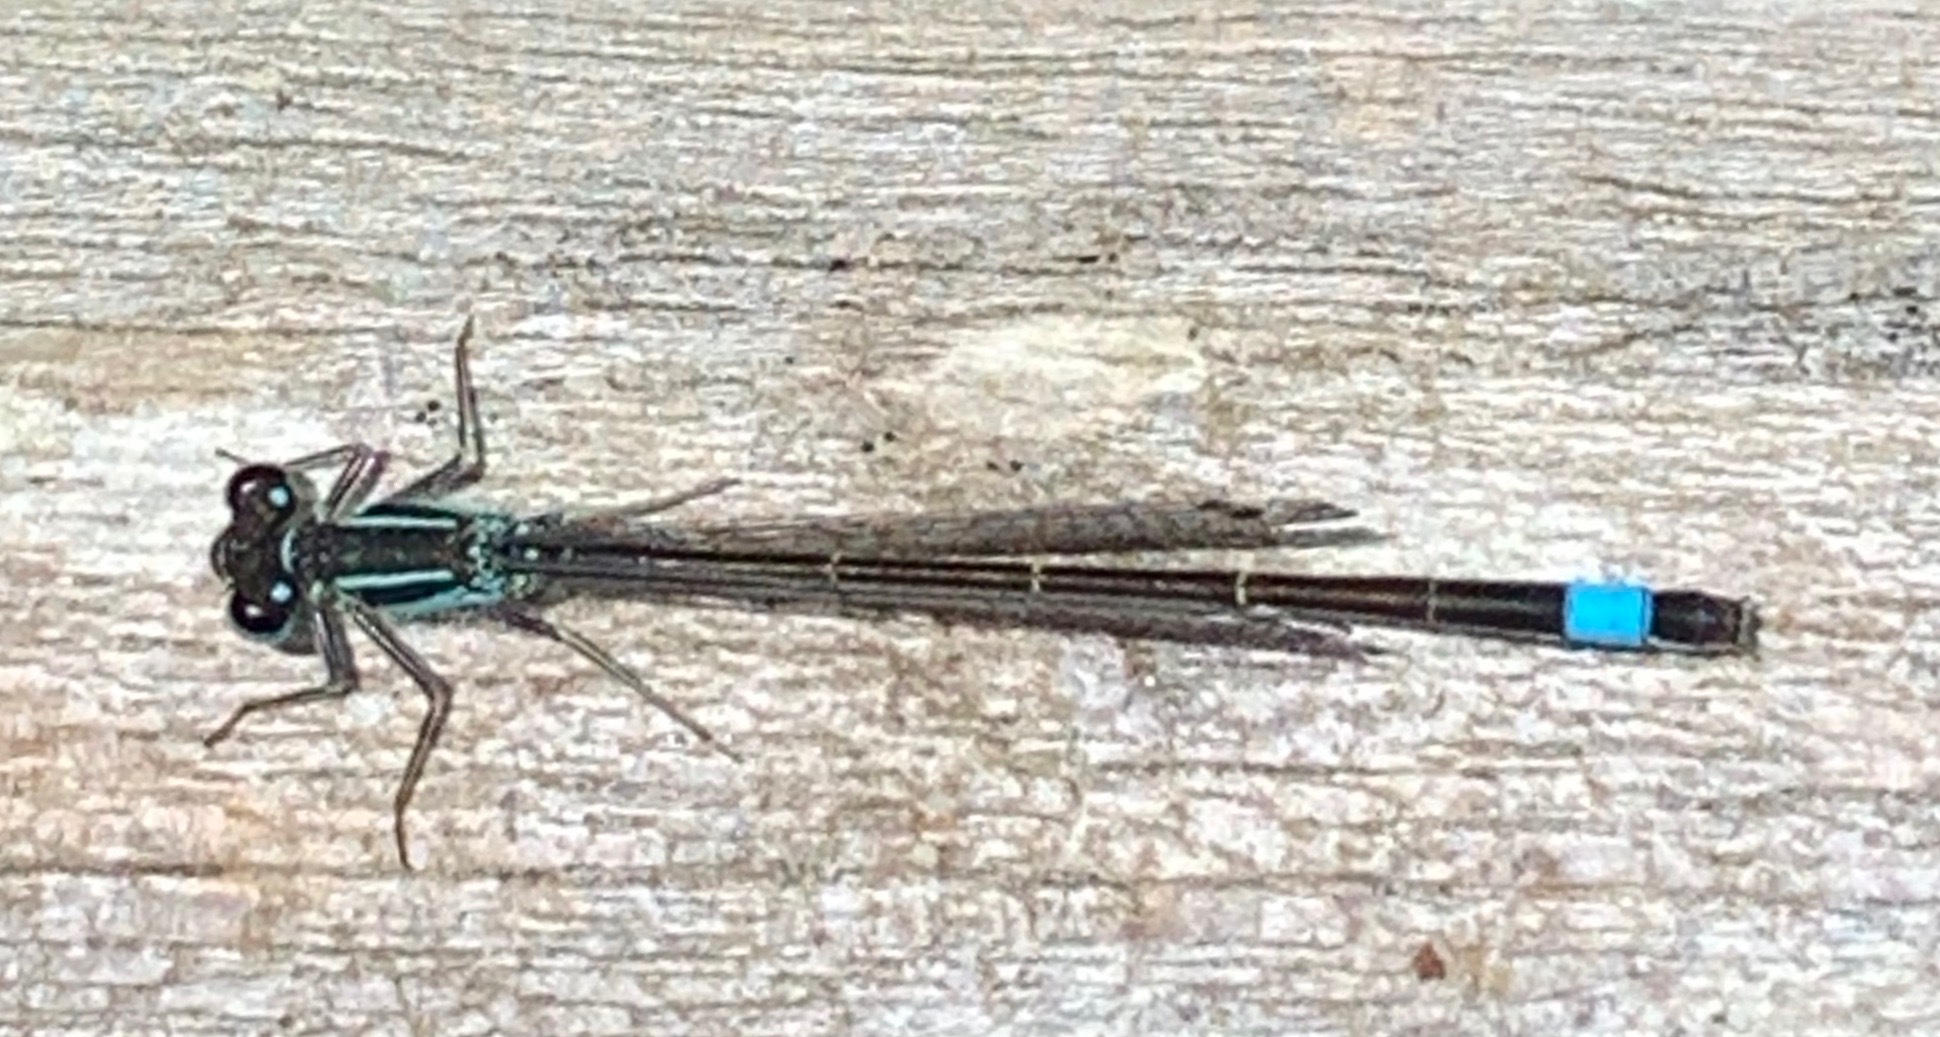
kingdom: Animalia
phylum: Arthropoda
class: Insecta
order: Odonata
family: Coenagrionidae
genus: Ischnura
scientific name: Ischnura elegans
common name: Blue-tailed damselfly
